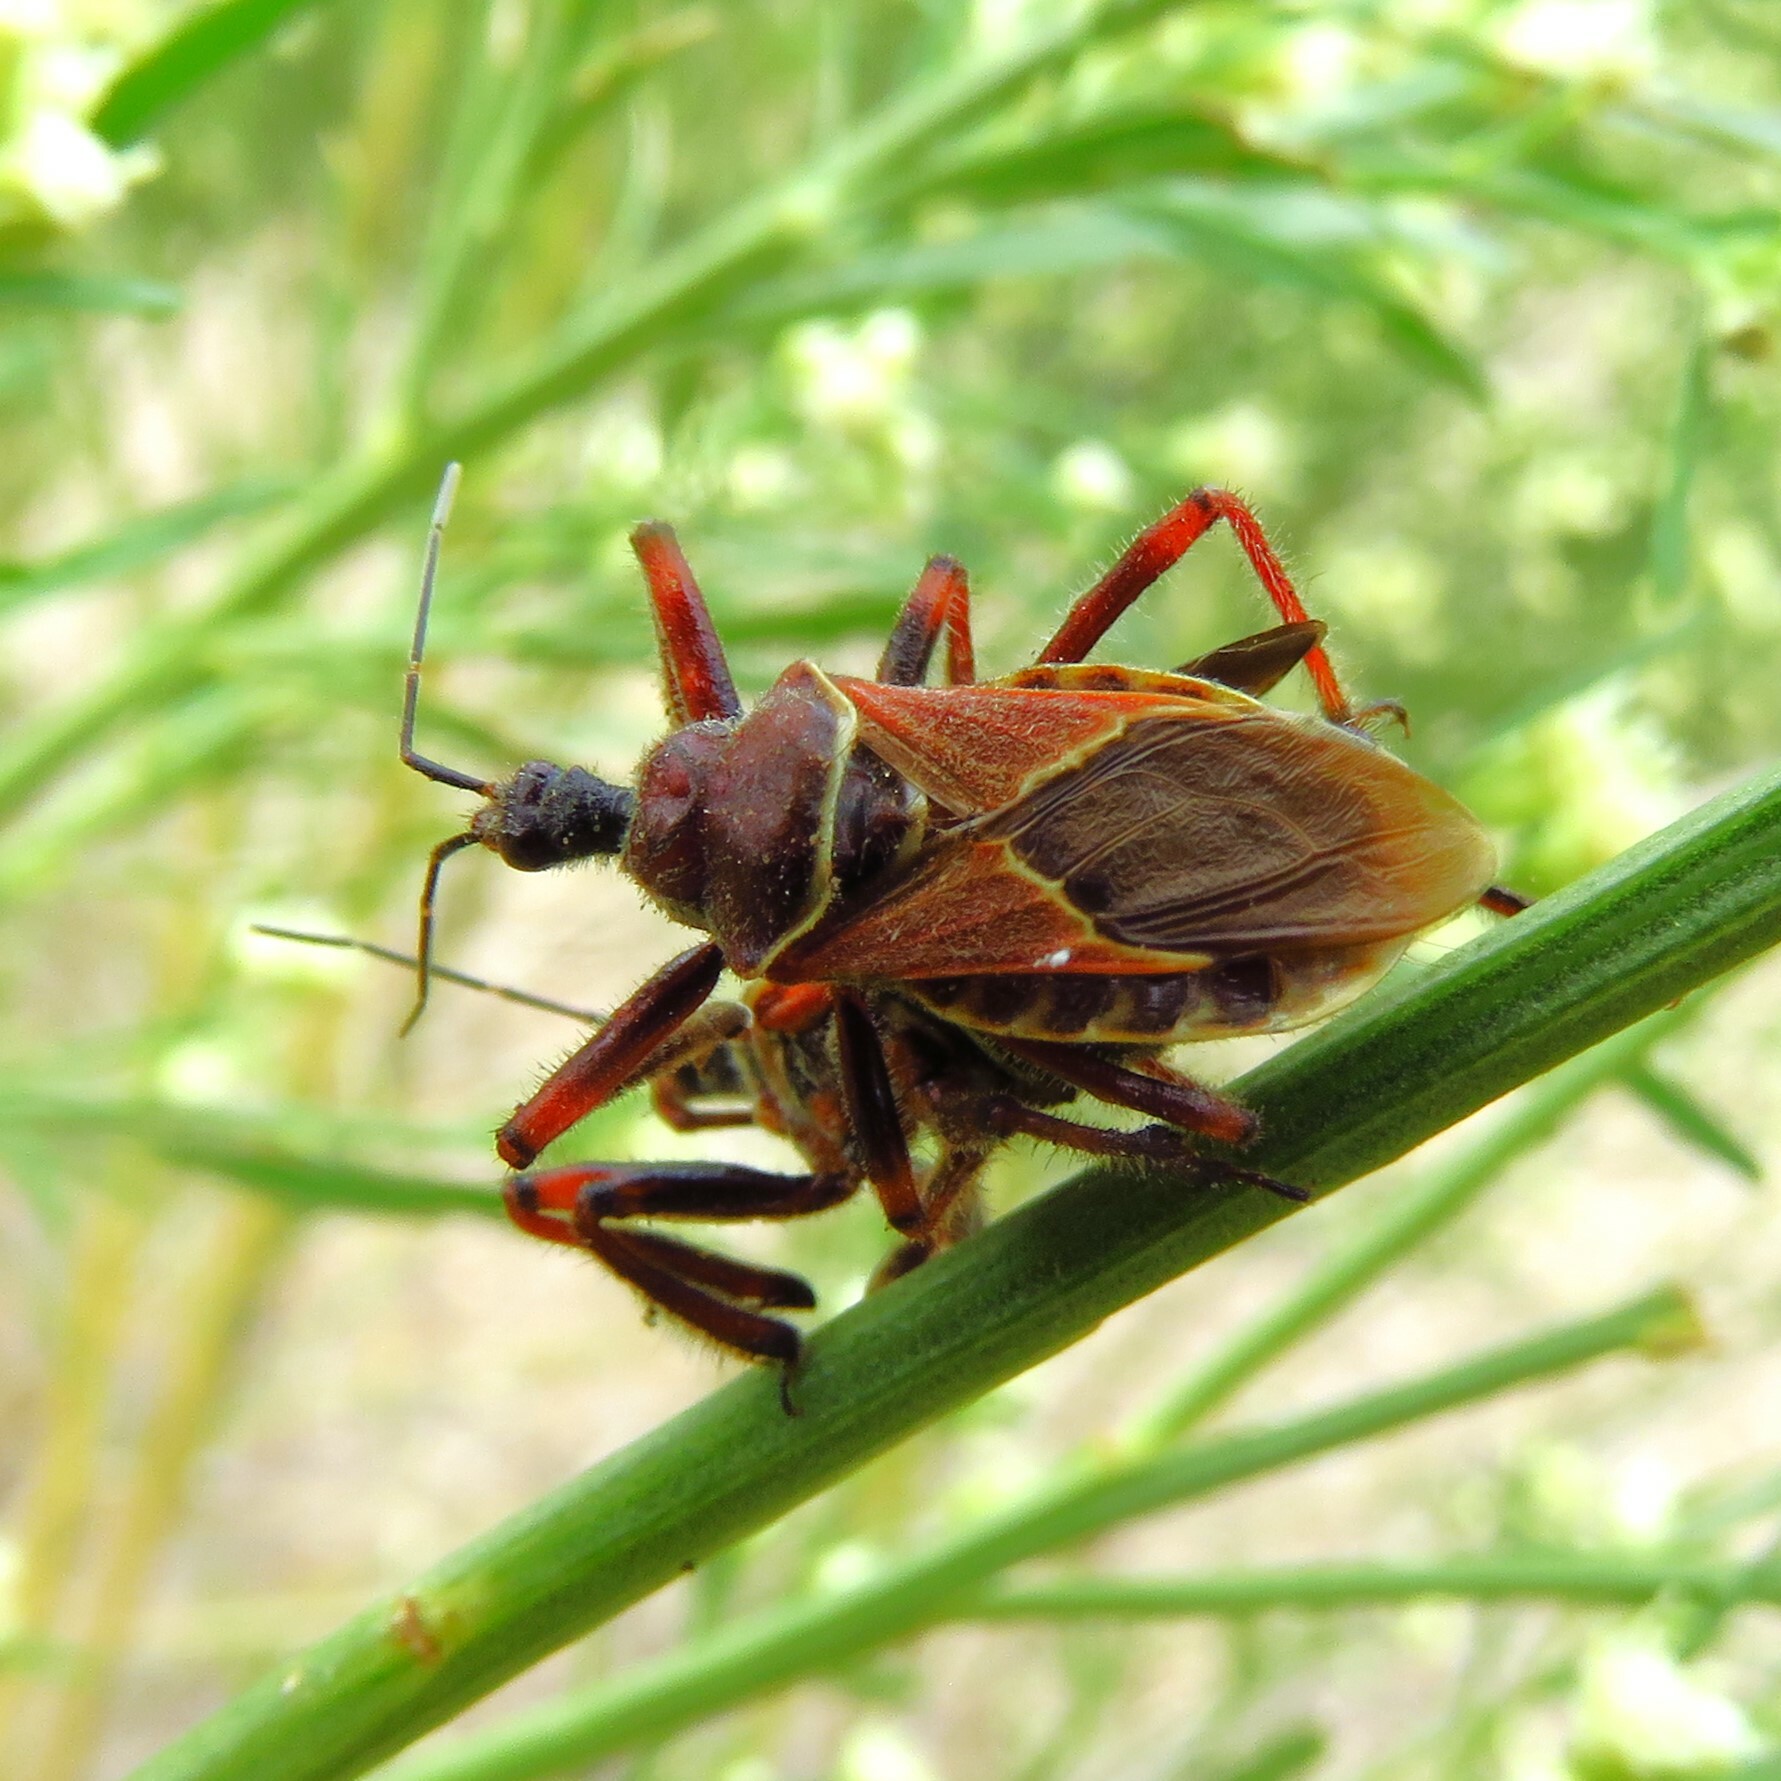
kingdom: Animalia
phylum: Arthropoda
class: Insecta
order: Hemiptera
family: Reduviidae
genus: Apiomerus
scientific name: Apiomerus spissipes
